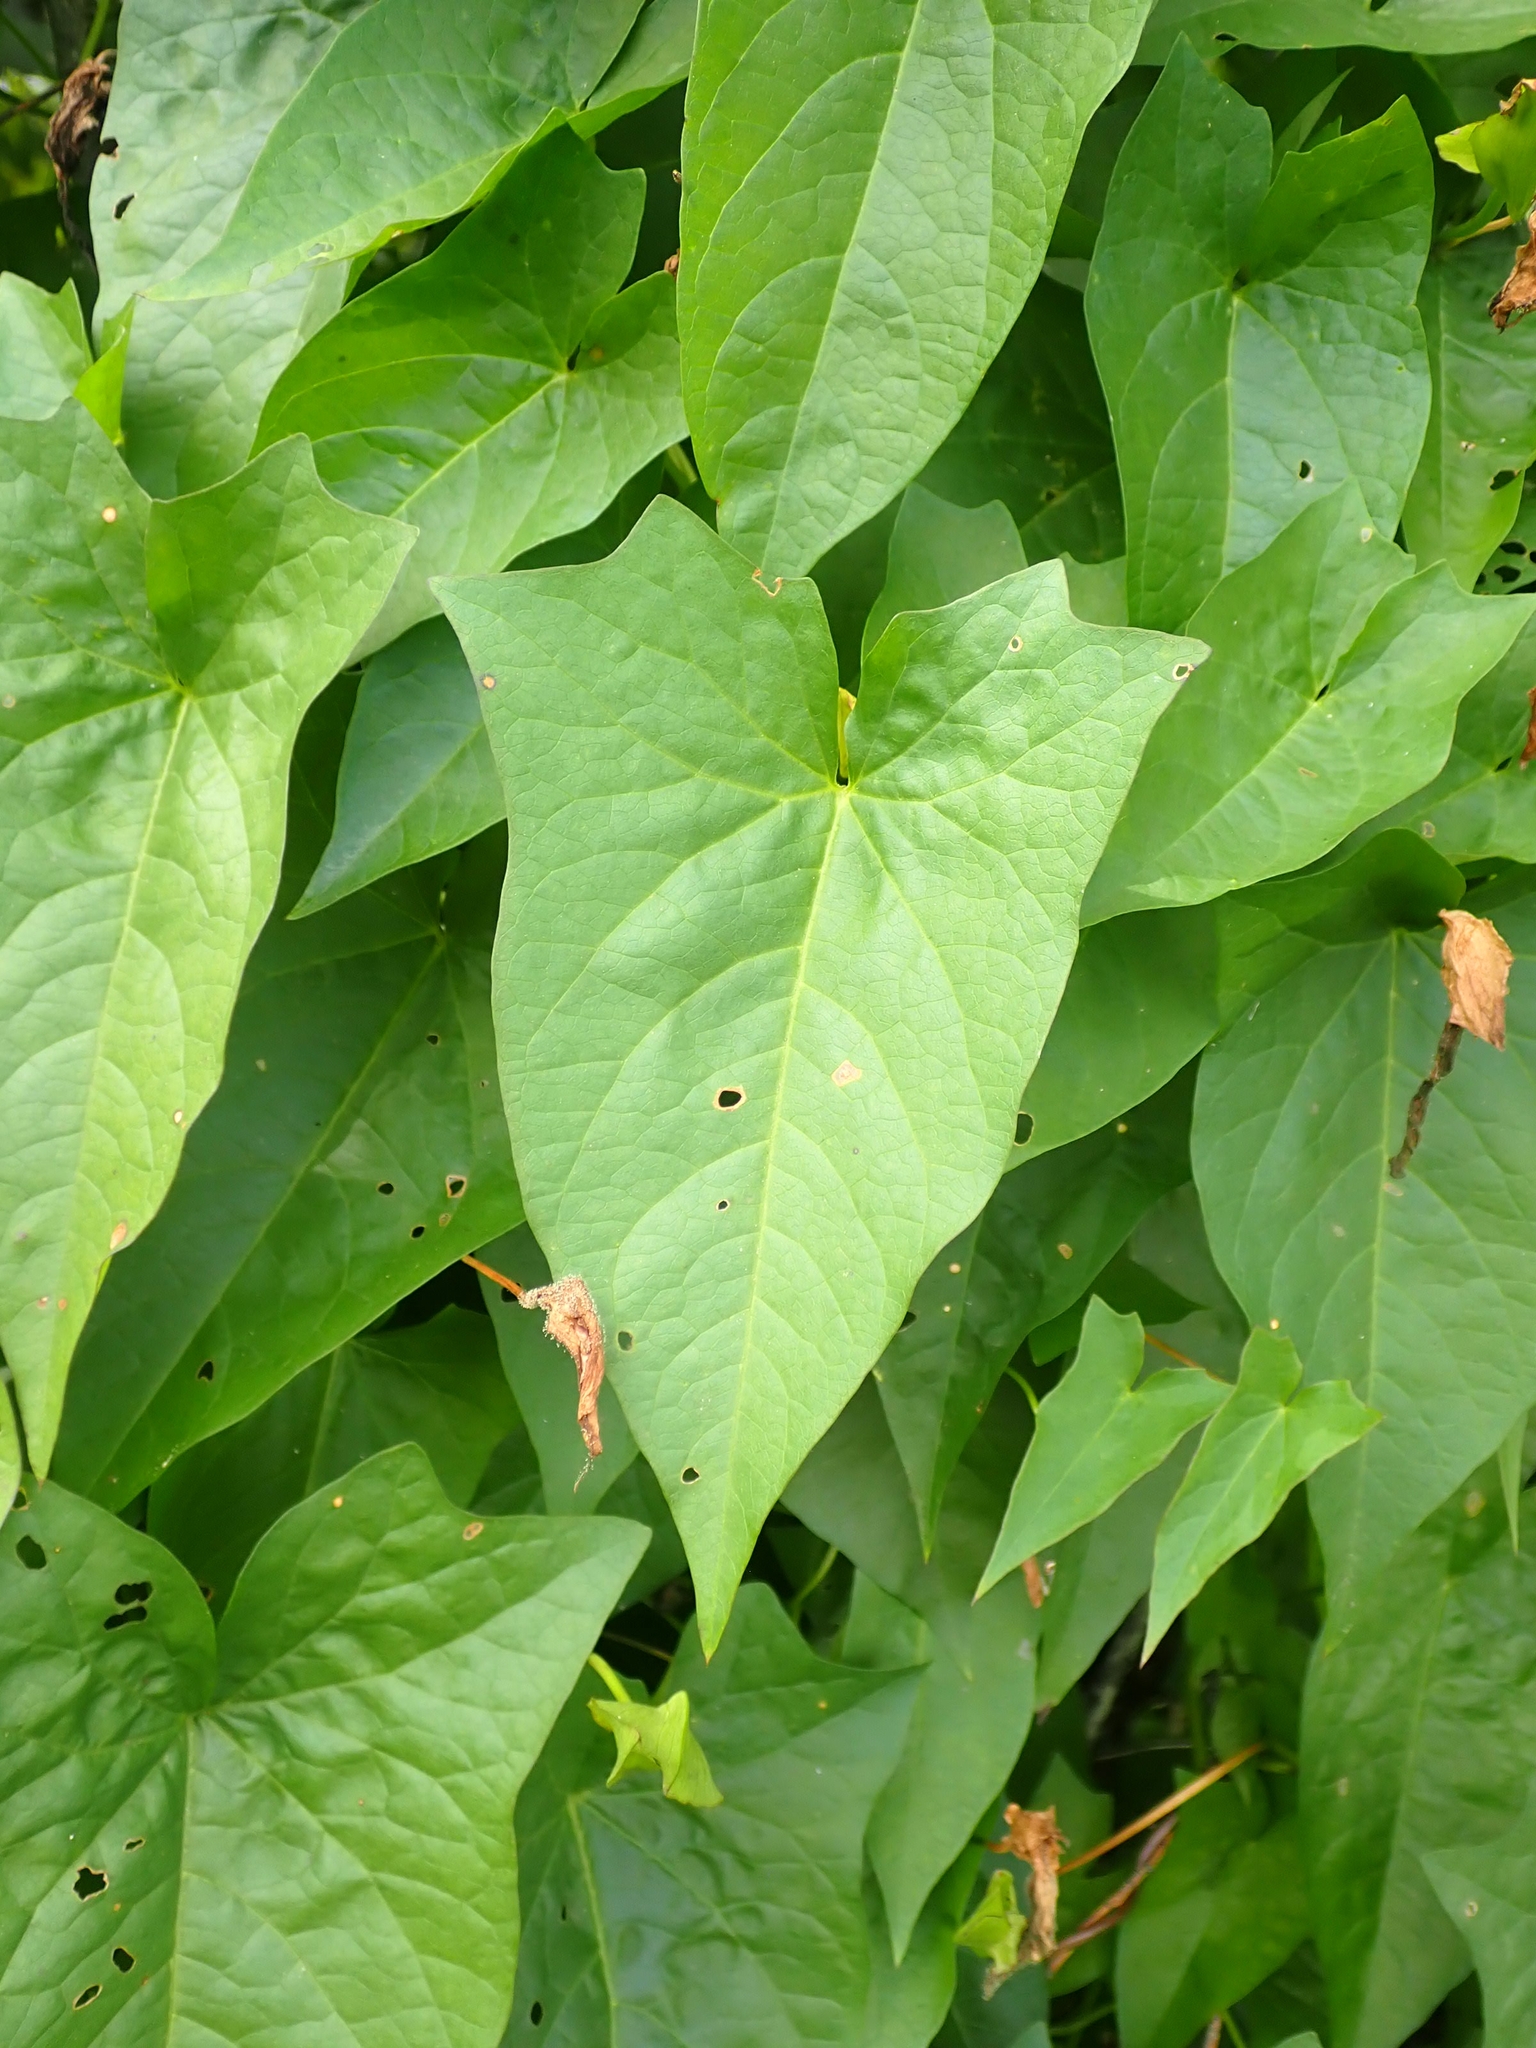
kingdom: Plantae
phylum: Tracheophyta
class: Magnoliopsida
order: Solanales
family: Convolvulaceae
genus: Calystegia
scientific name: Calystegia sepium
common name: Hedge bindweed
